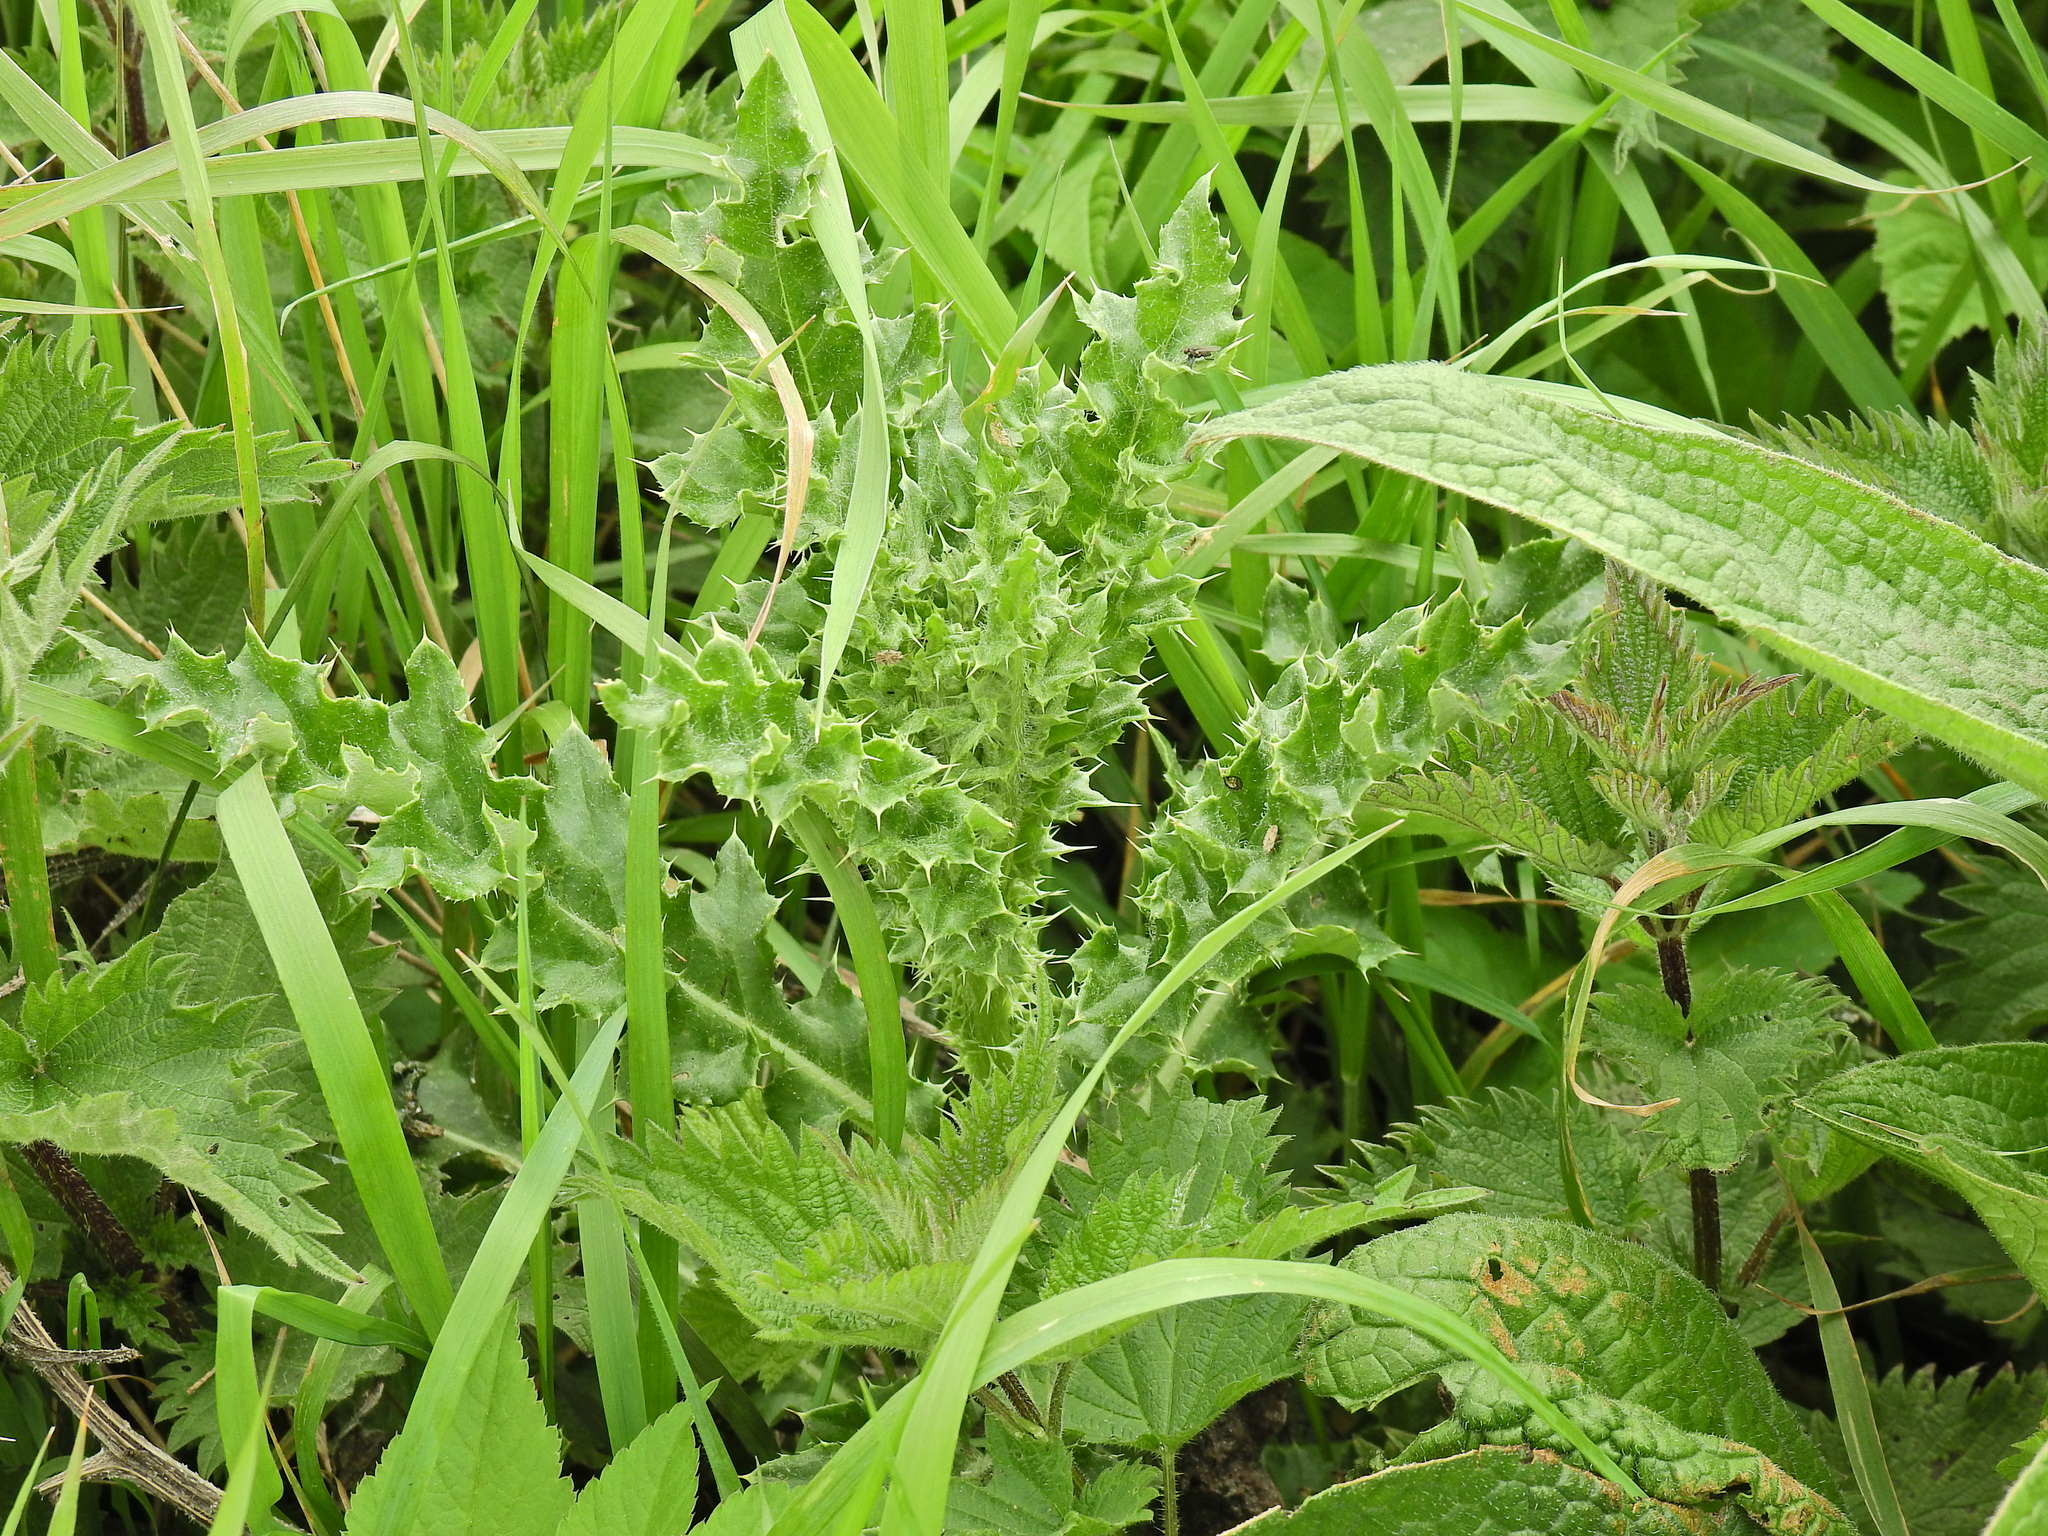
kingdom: Plantae
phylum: Tracheophyta
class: Magnoliopsida
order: Asterales
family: Asteraceae
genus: Cirsium
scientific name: Cirsium arvense
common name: Creeping thistle
